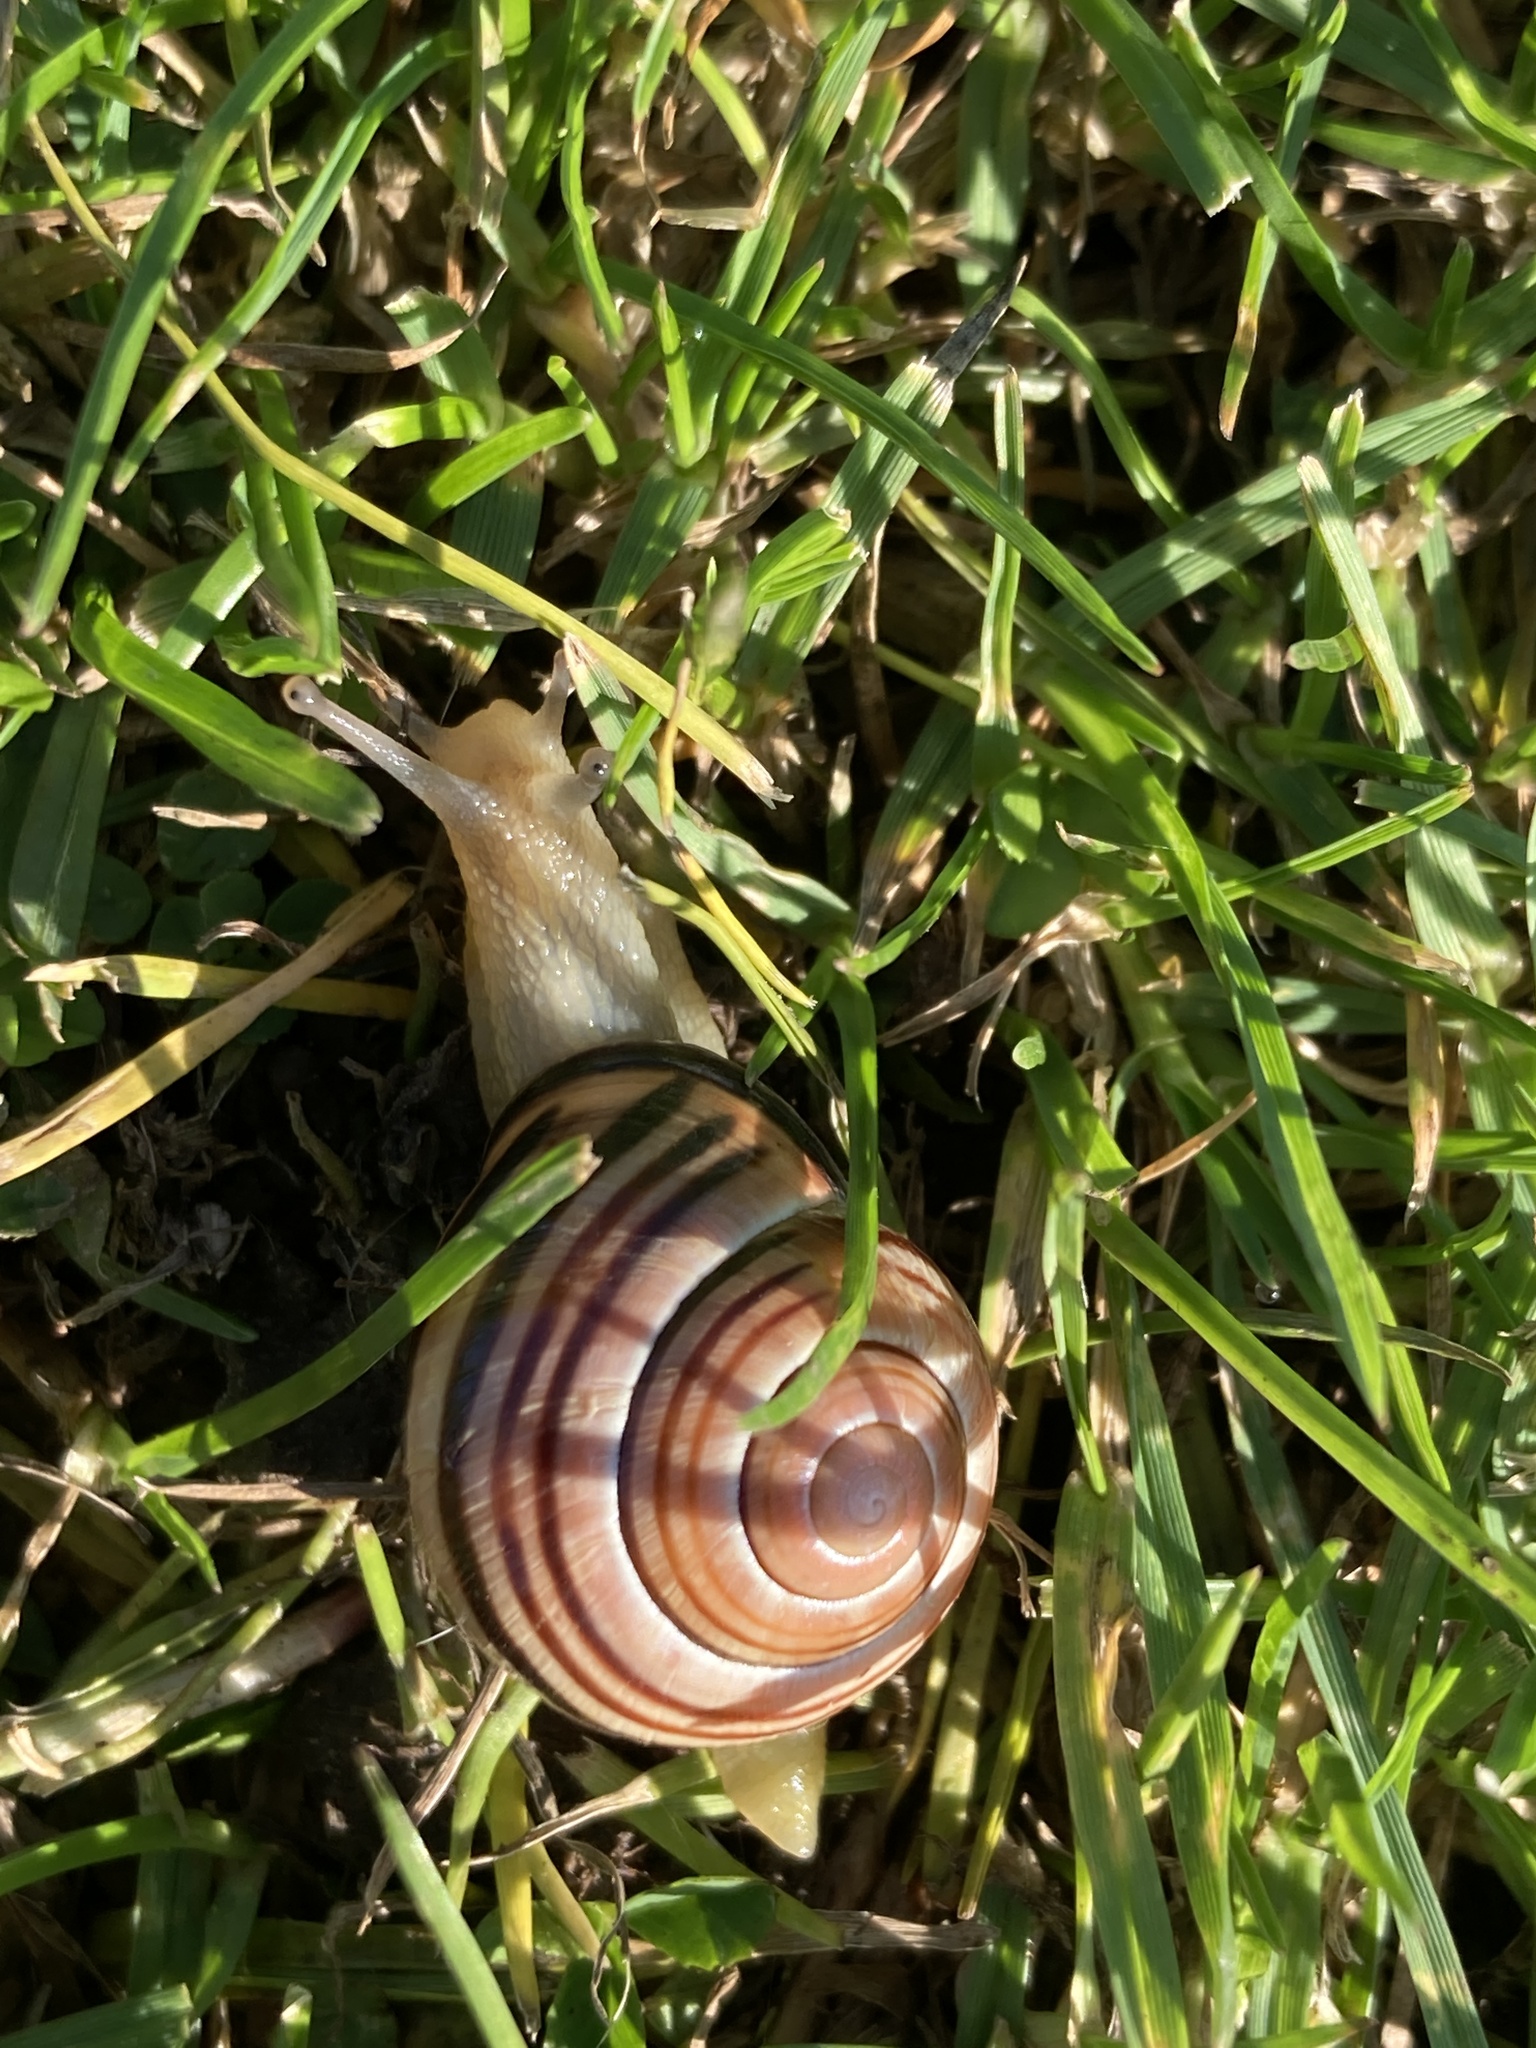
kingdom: Animalia
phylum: Mollusca
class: Gastropoda
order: Stylommatophora
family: Helicidae
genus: Cepaea
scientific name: Cepaea nemoralis
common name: Grovesnail
